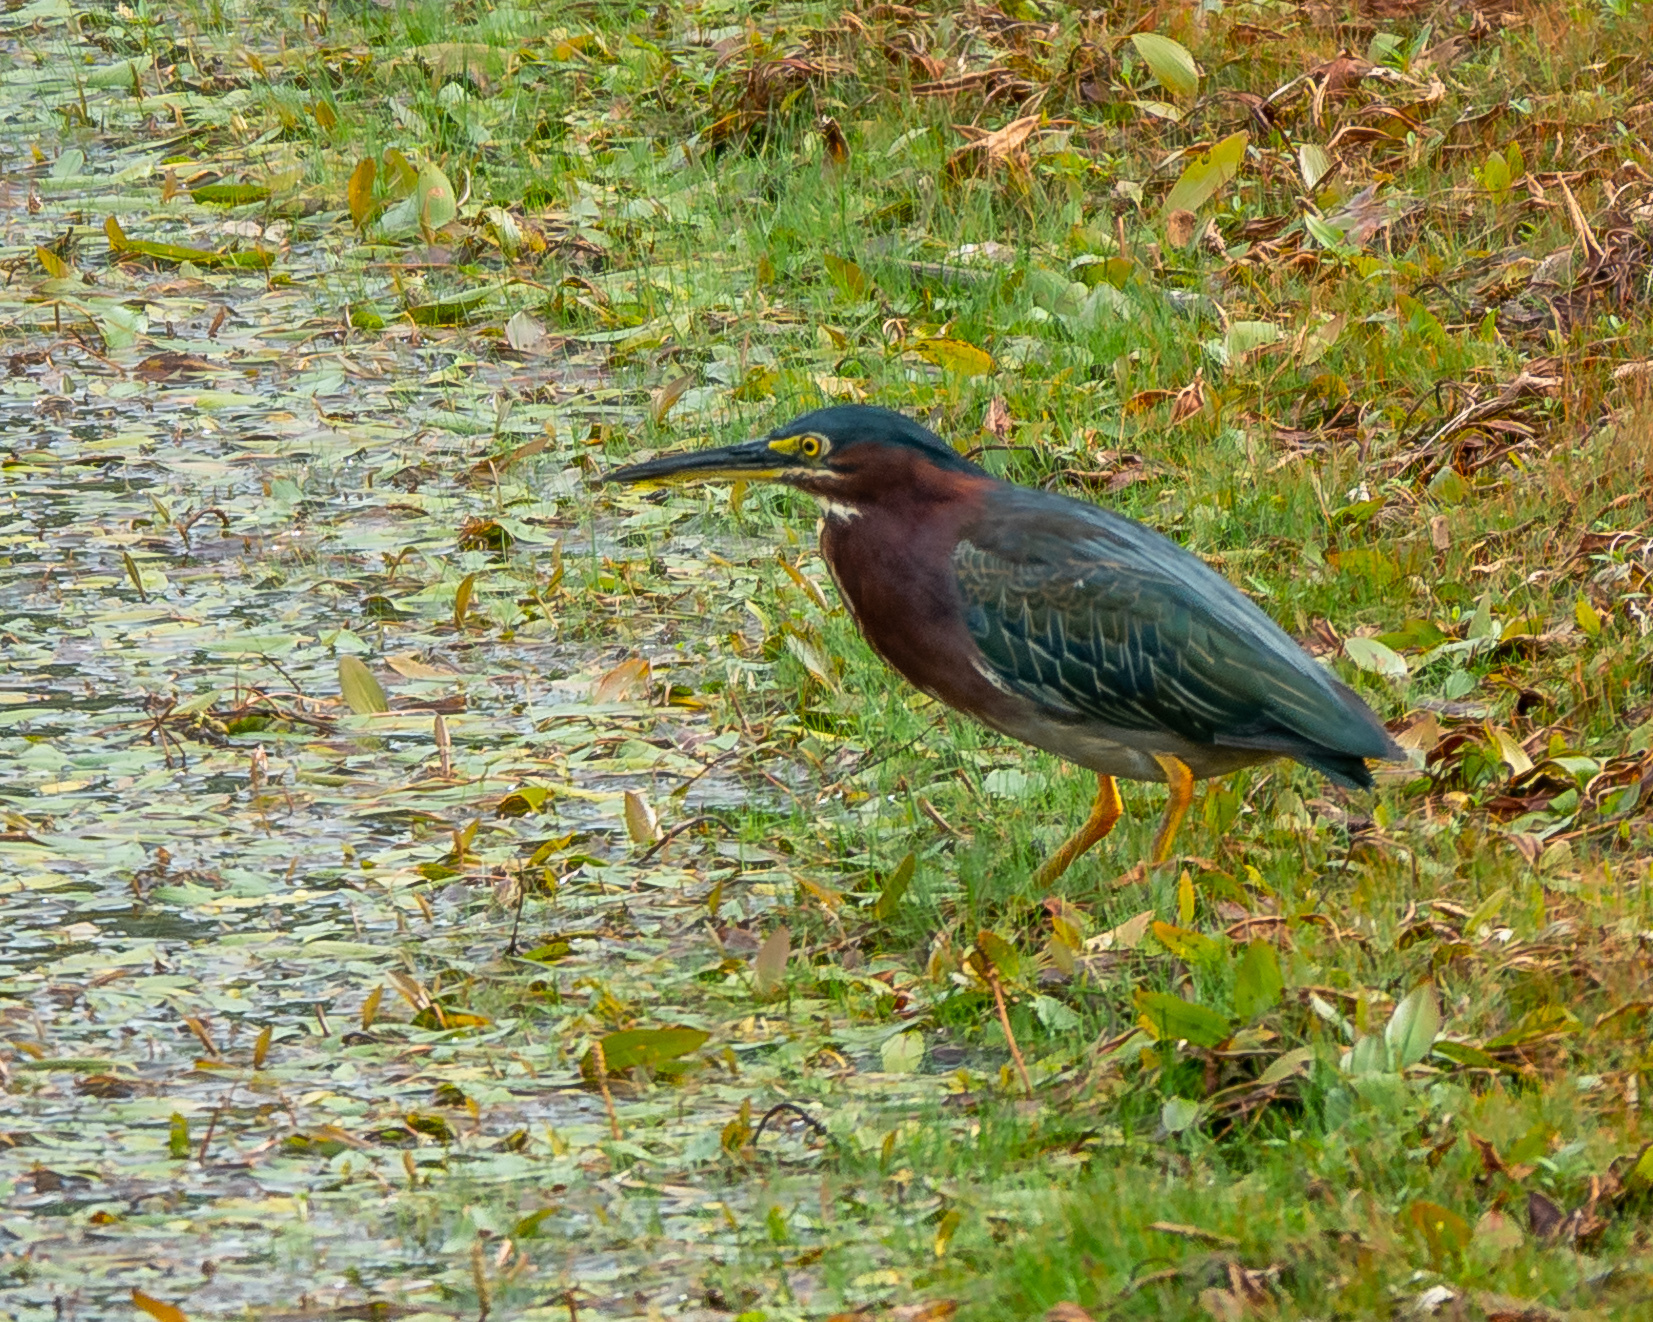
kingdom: Animalia
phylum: Chordata
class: Aves
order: Pelecaniformes
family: Ardeidae
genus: Butorides
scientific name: Butorides virescens
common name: Green heron
